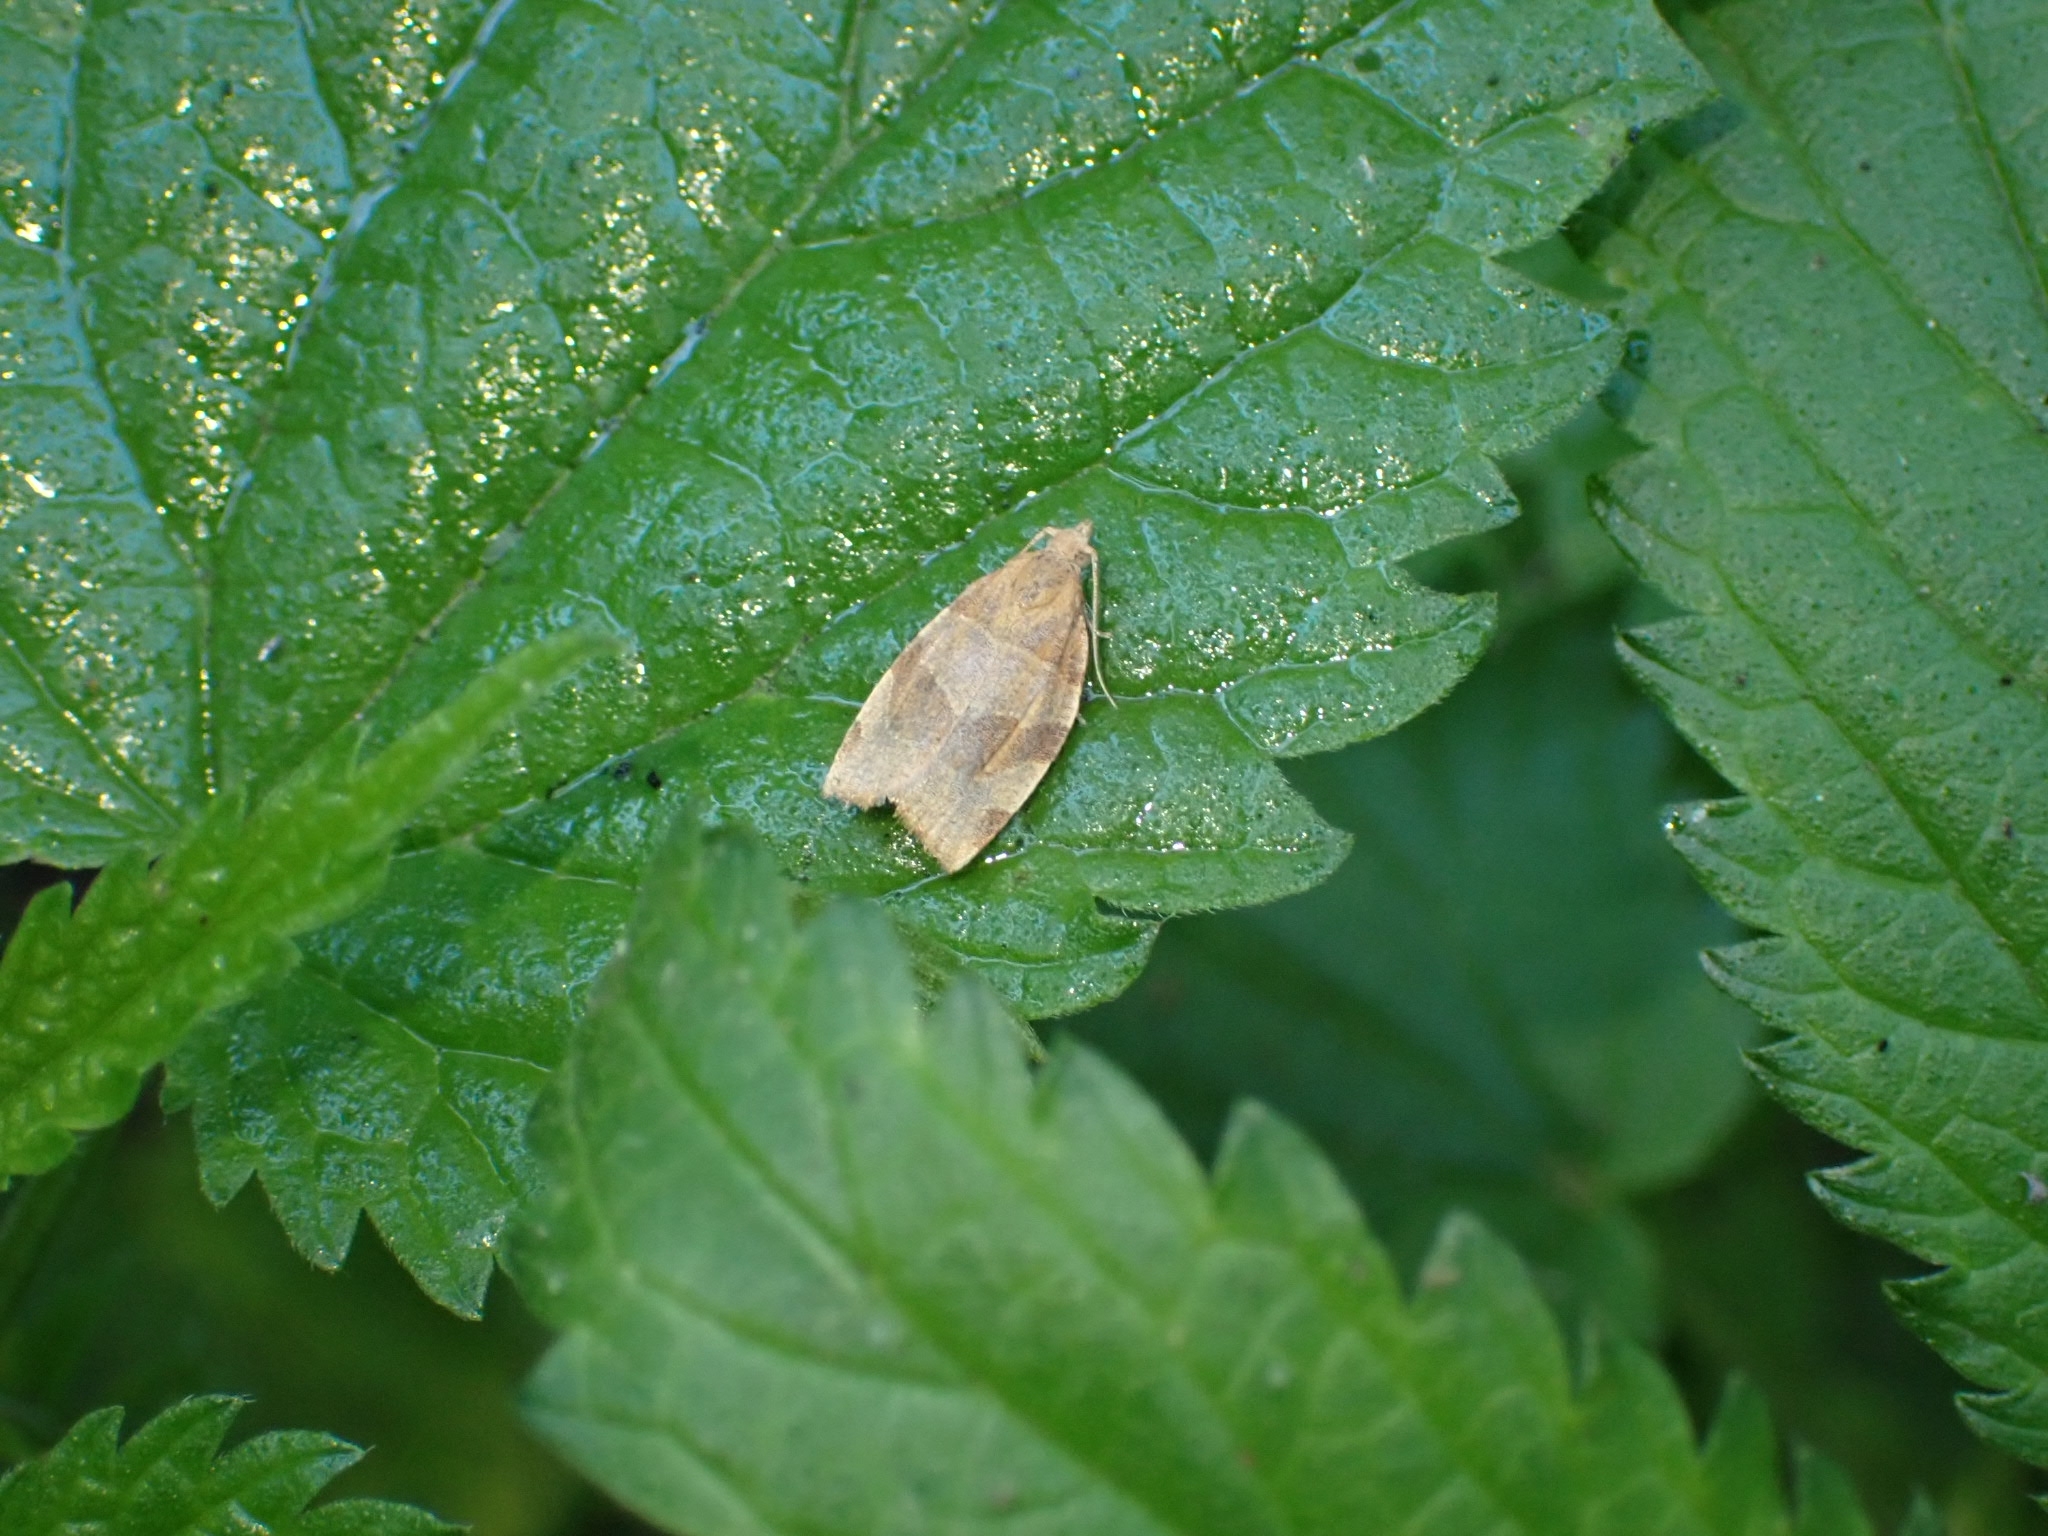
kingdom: Animalia
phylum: Arthropoda
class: Insecta
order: Lepidoptera
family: Tortricidae
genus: Clepsis
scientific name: Clepsis rurinana
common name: Pale twist
